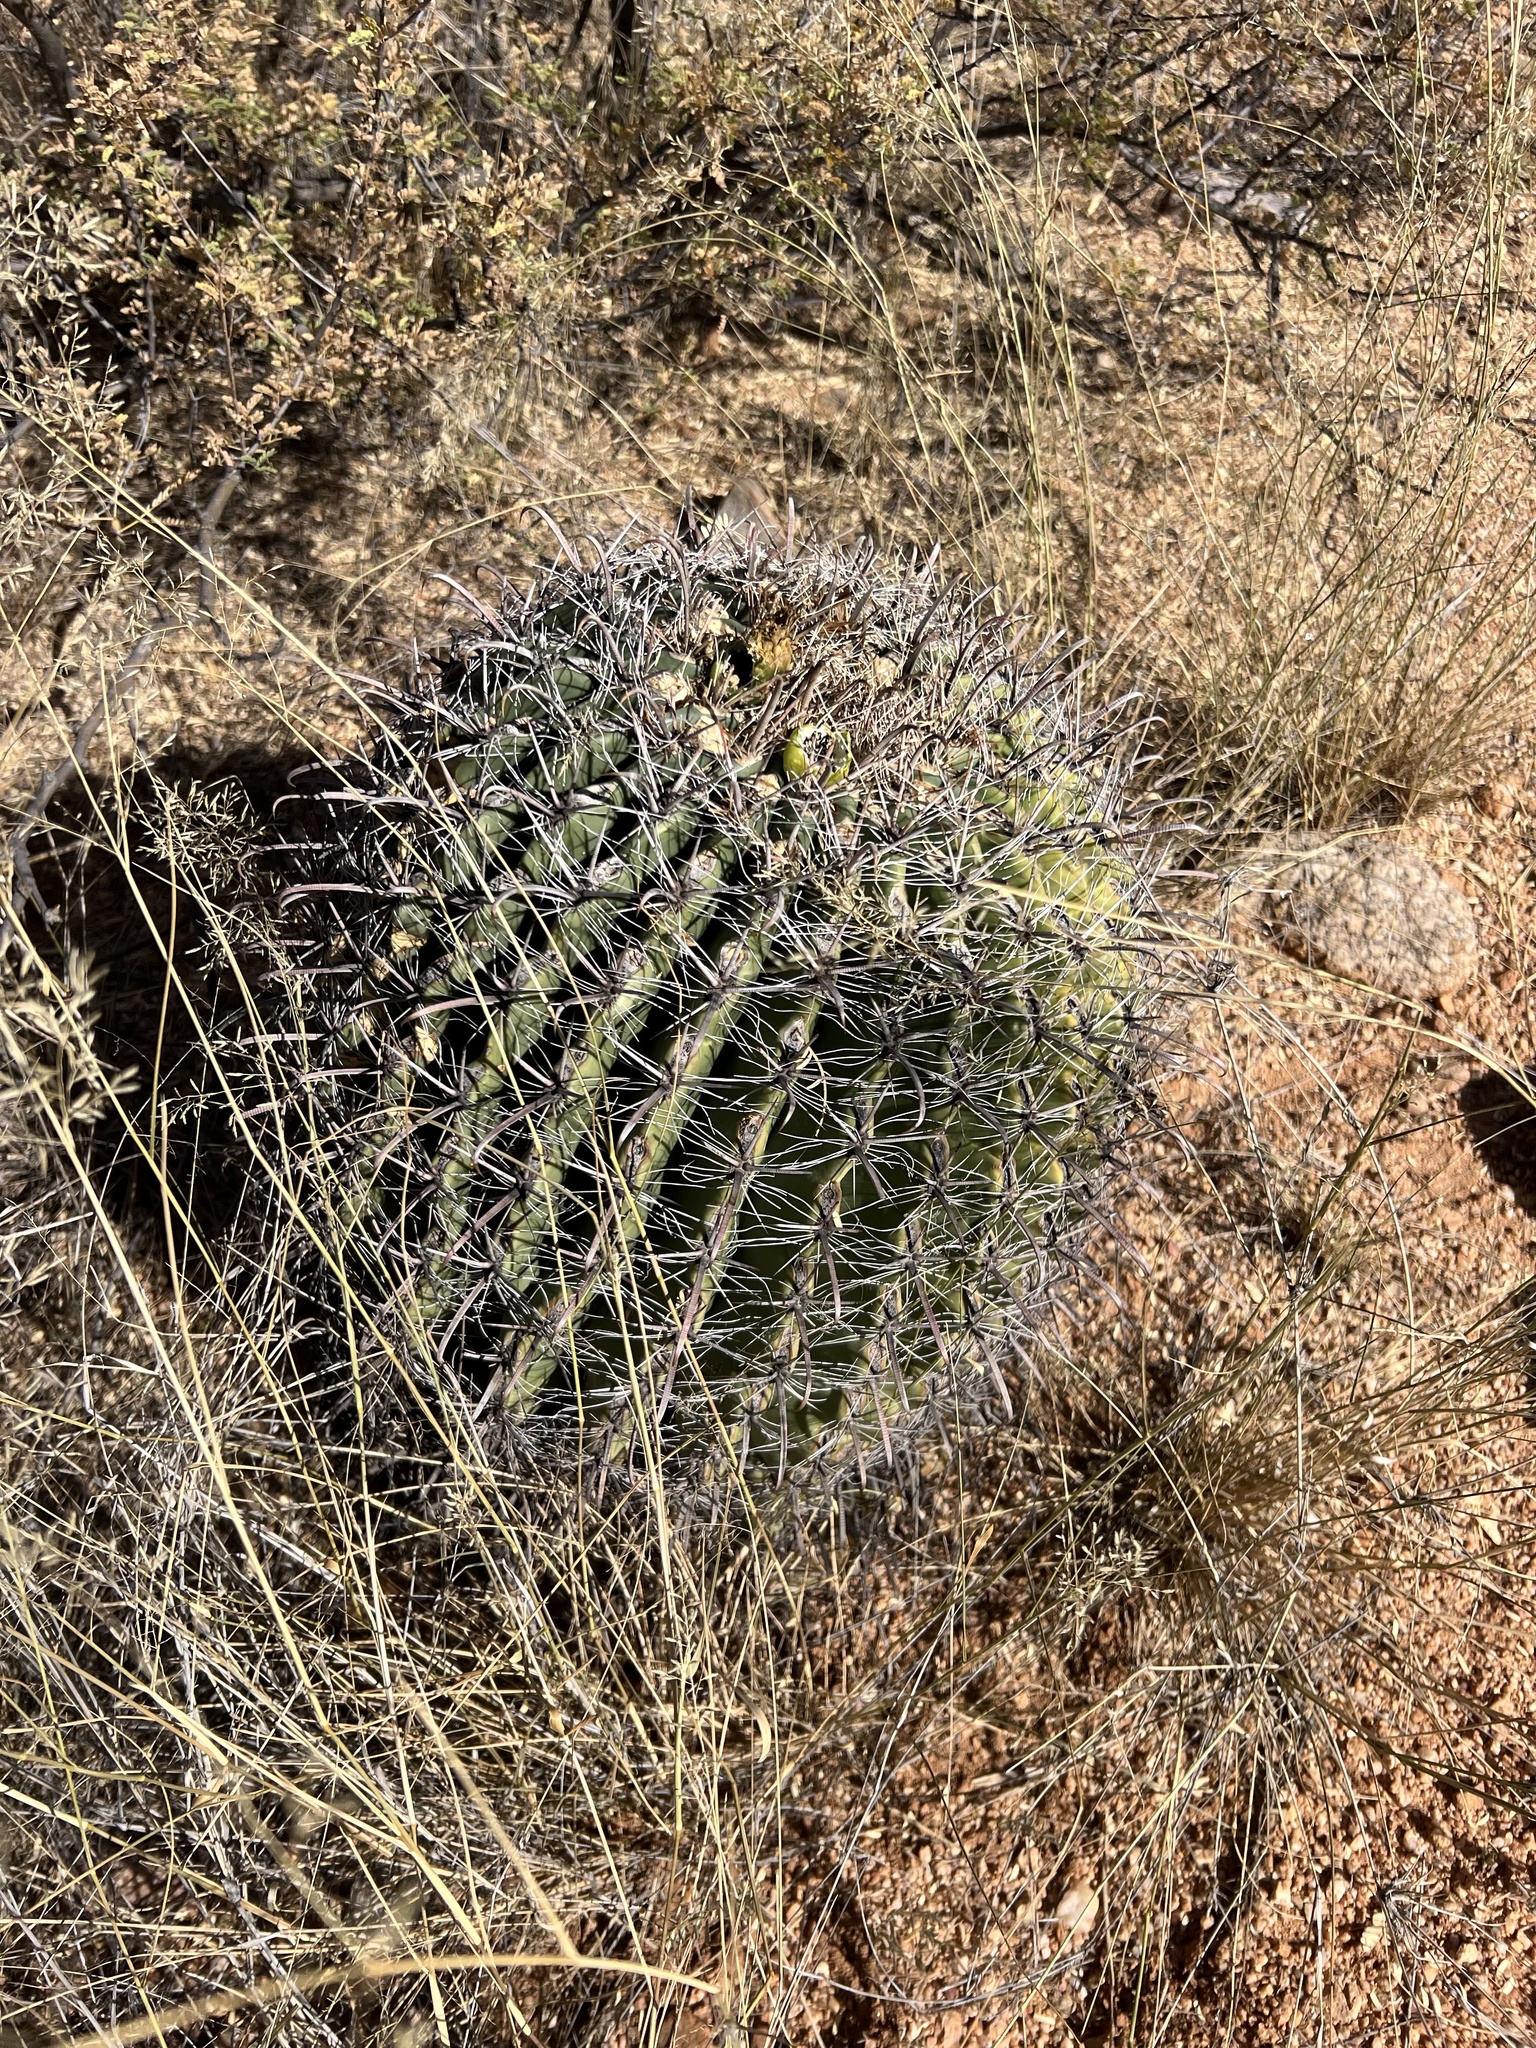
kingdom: Plantae
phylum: Tracheophyta
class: Magnoliopsida
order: Caryophyllales
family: Cactaceae
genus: Ferocactus
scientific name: Ferocactus wislizeni
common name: Candy barrel cactus
